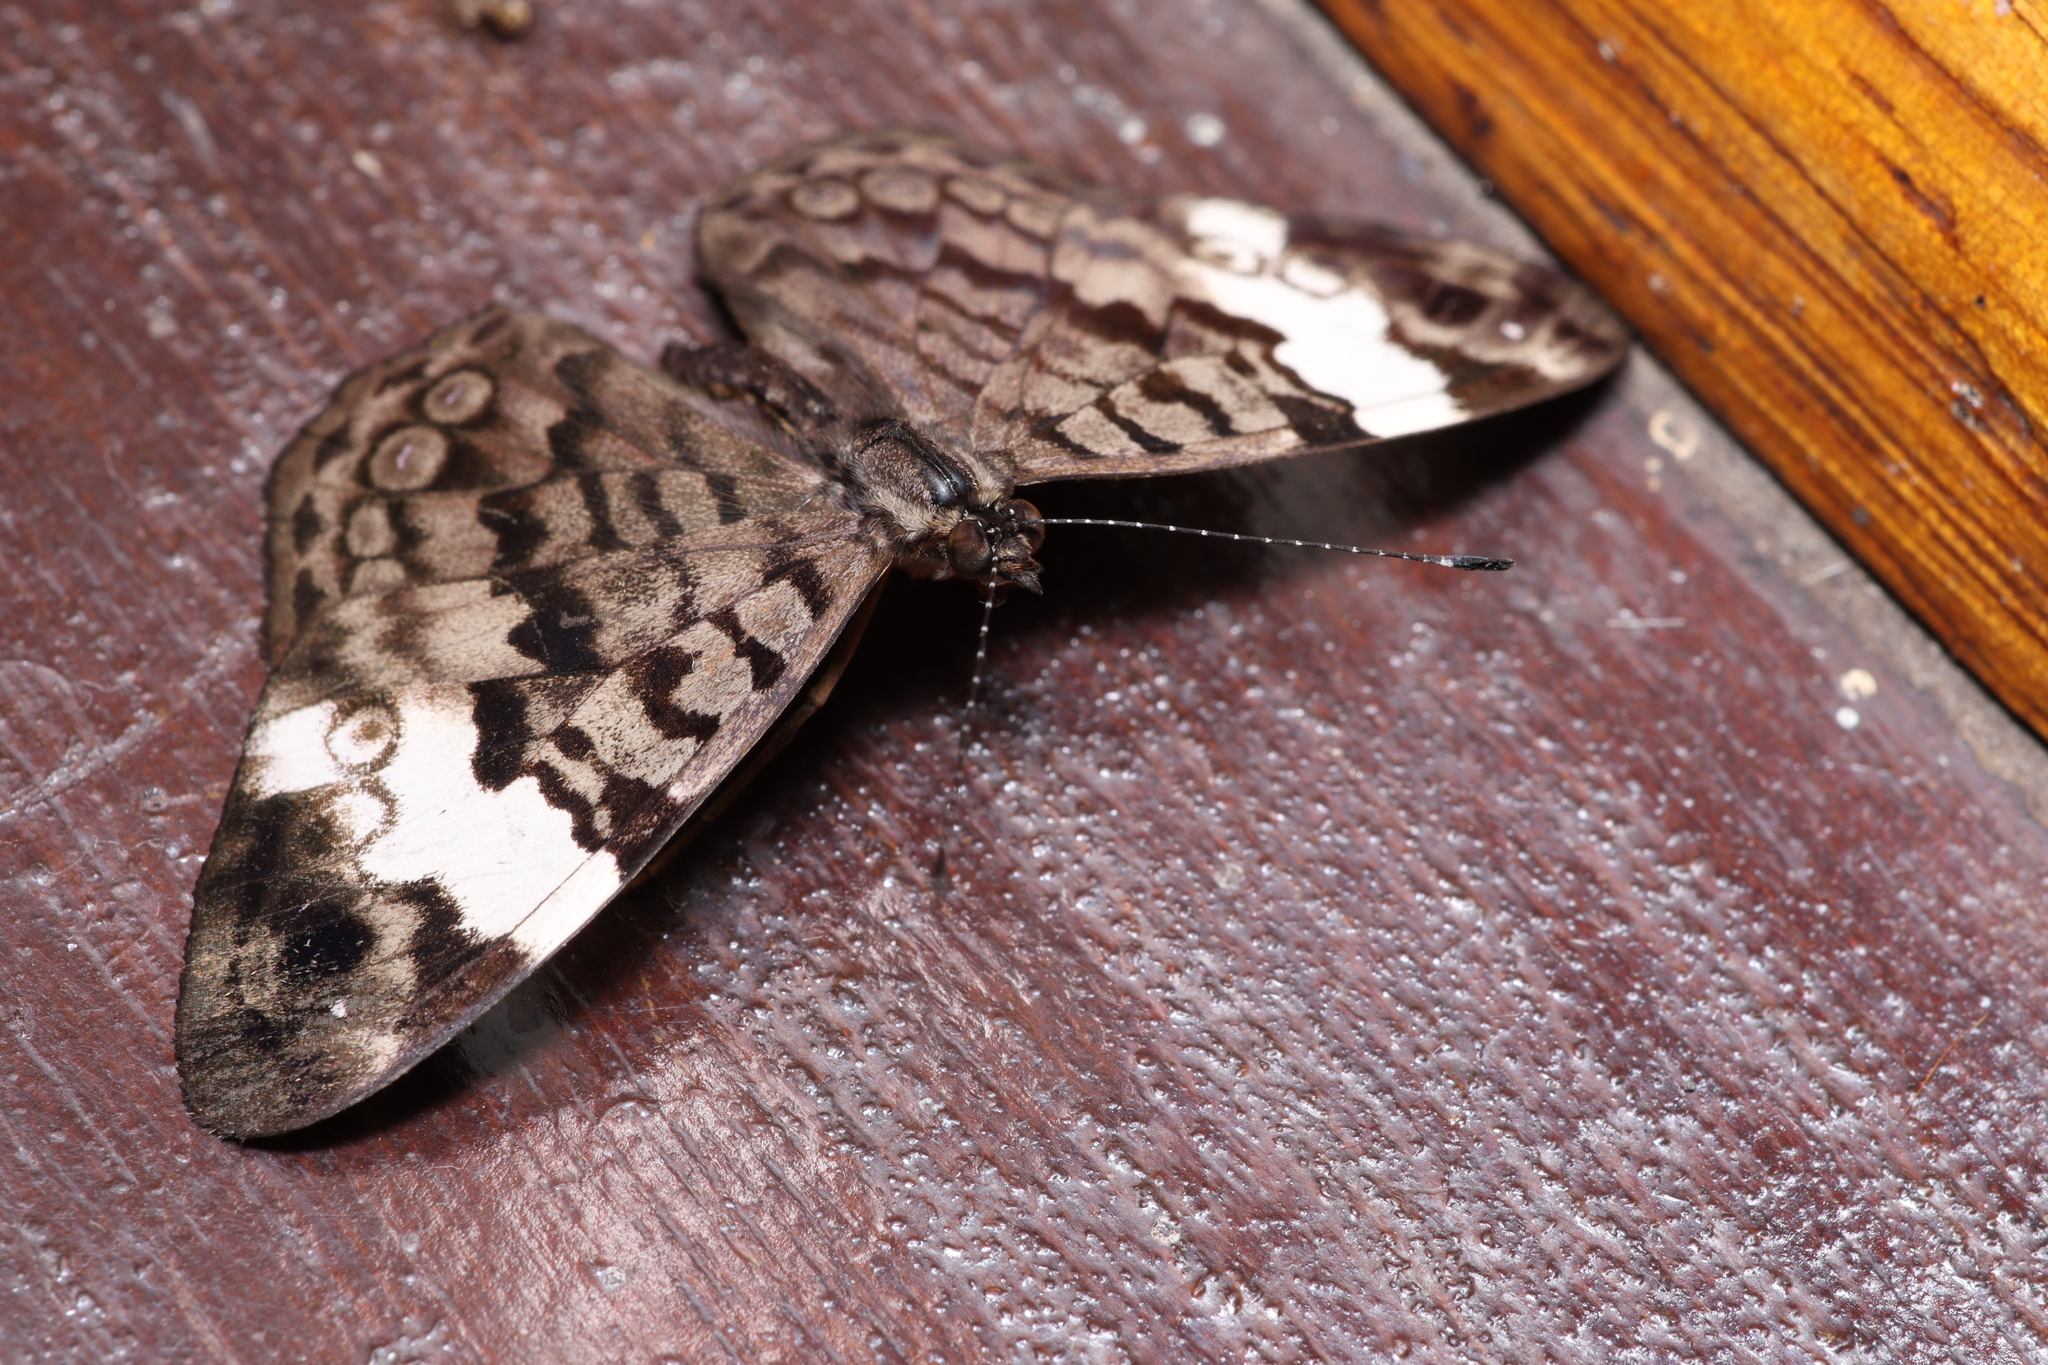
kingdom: Animalia
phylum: Arthropoda
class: Insecta
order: Lepidoptera
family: Nymphalidae
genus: Ectima
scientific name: Ectima thecla
